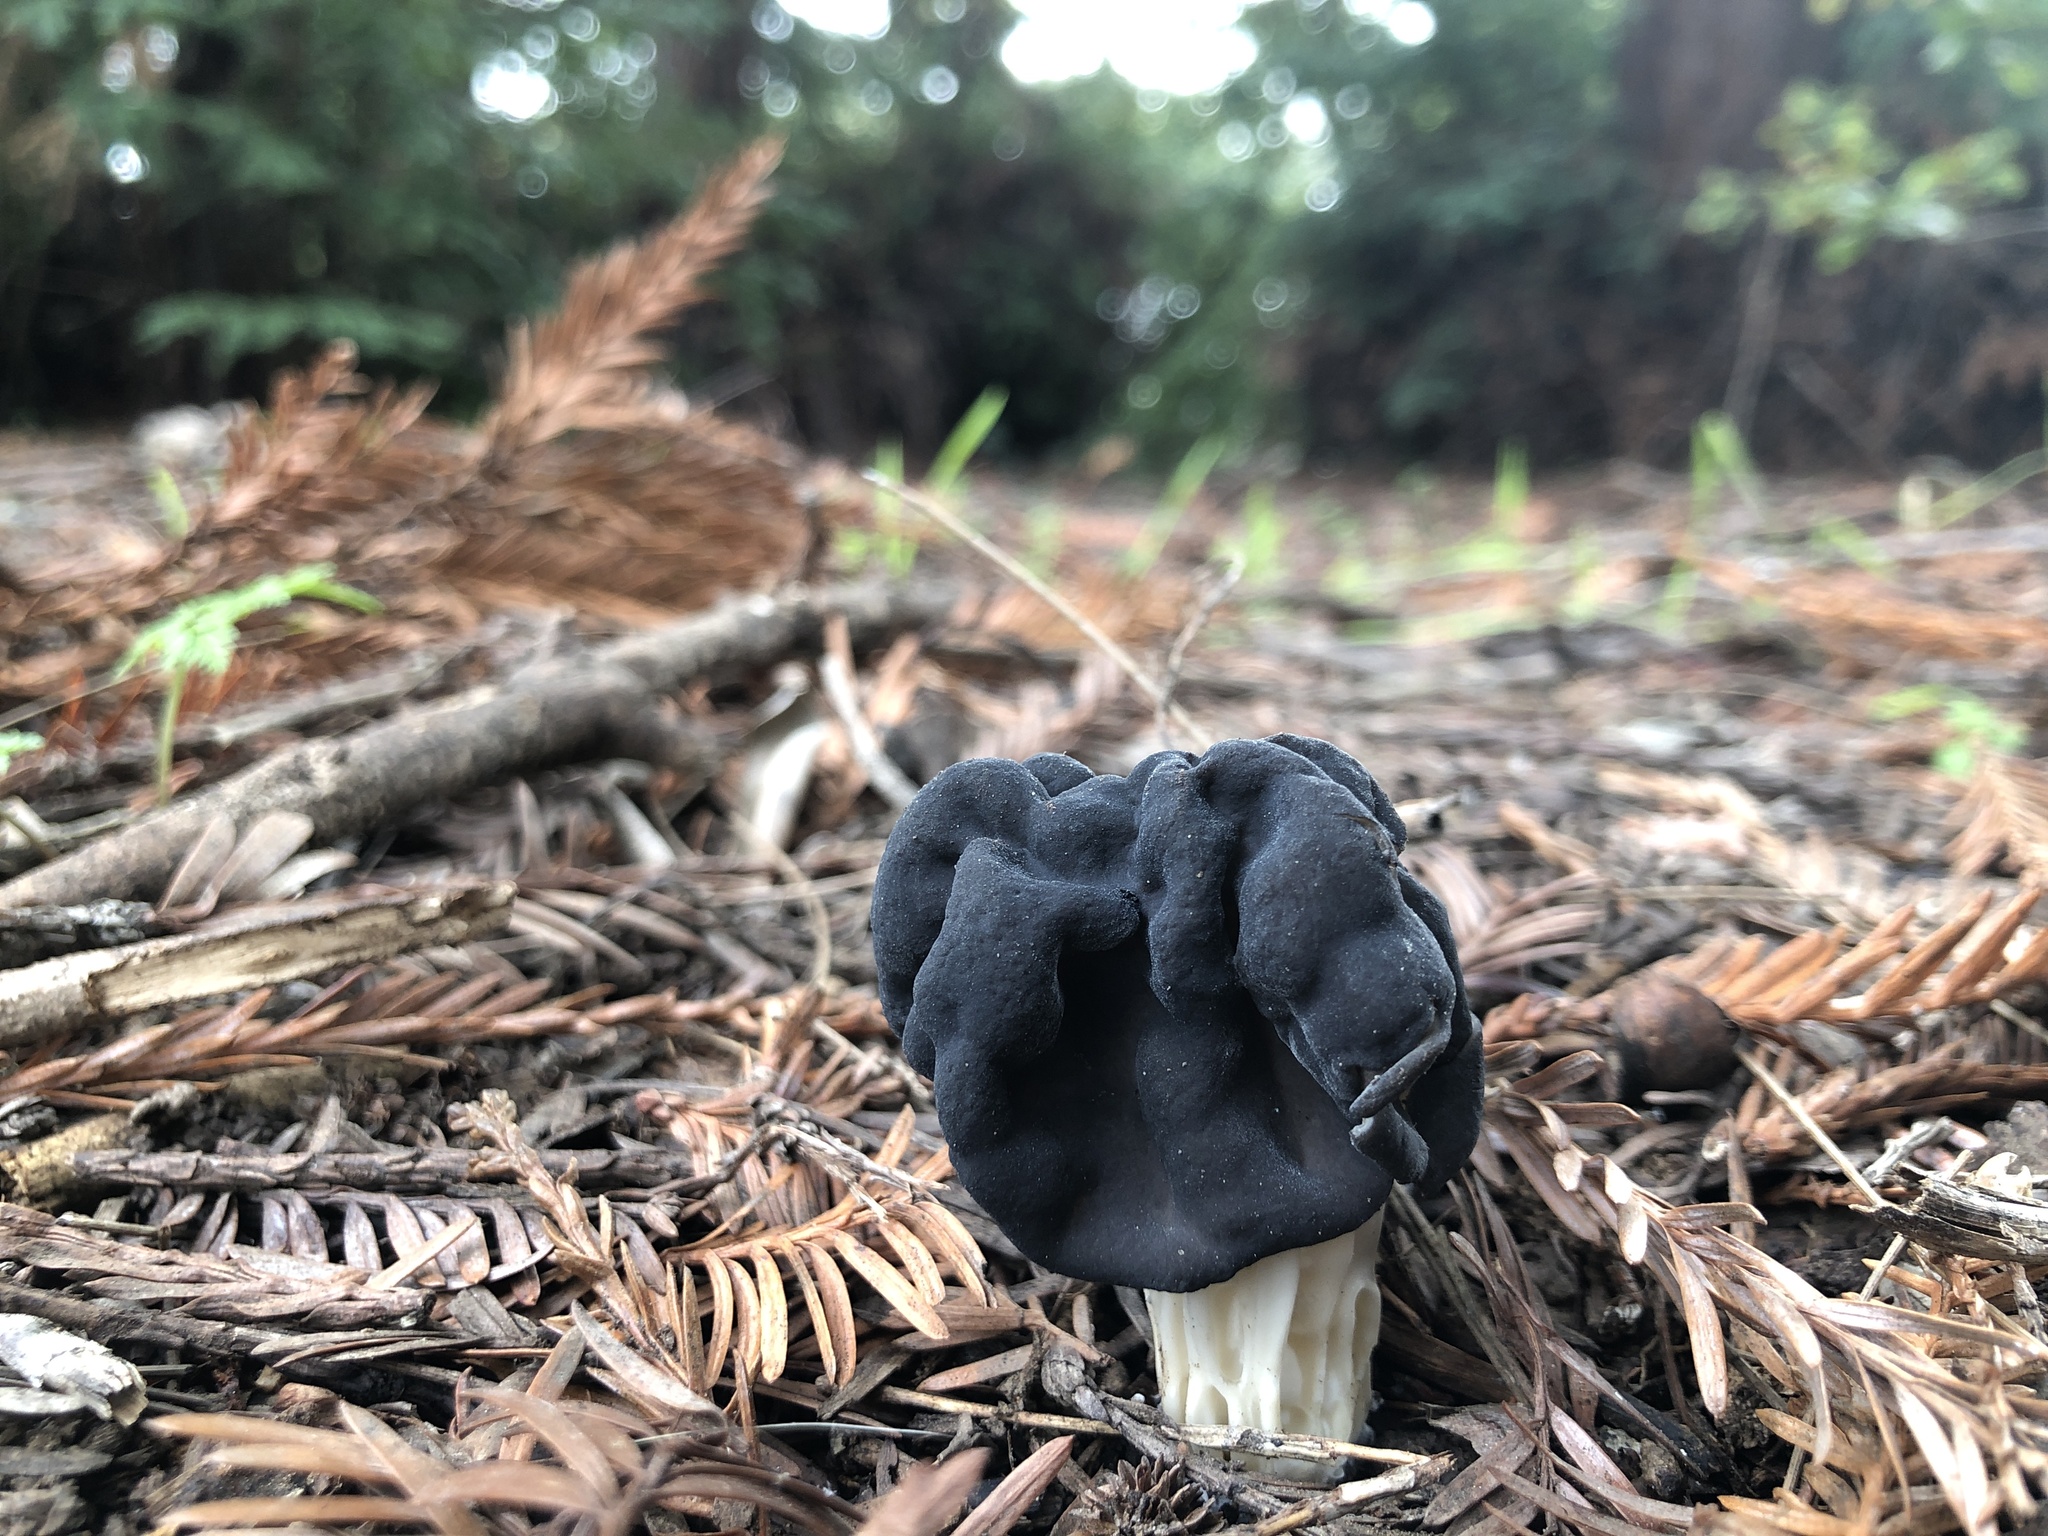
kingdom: Fungi
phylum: Ascomycota
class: Pezizomycetes
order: Pezizales
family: Helvellaceae
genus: Helvella
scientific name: Helvella vespertina
